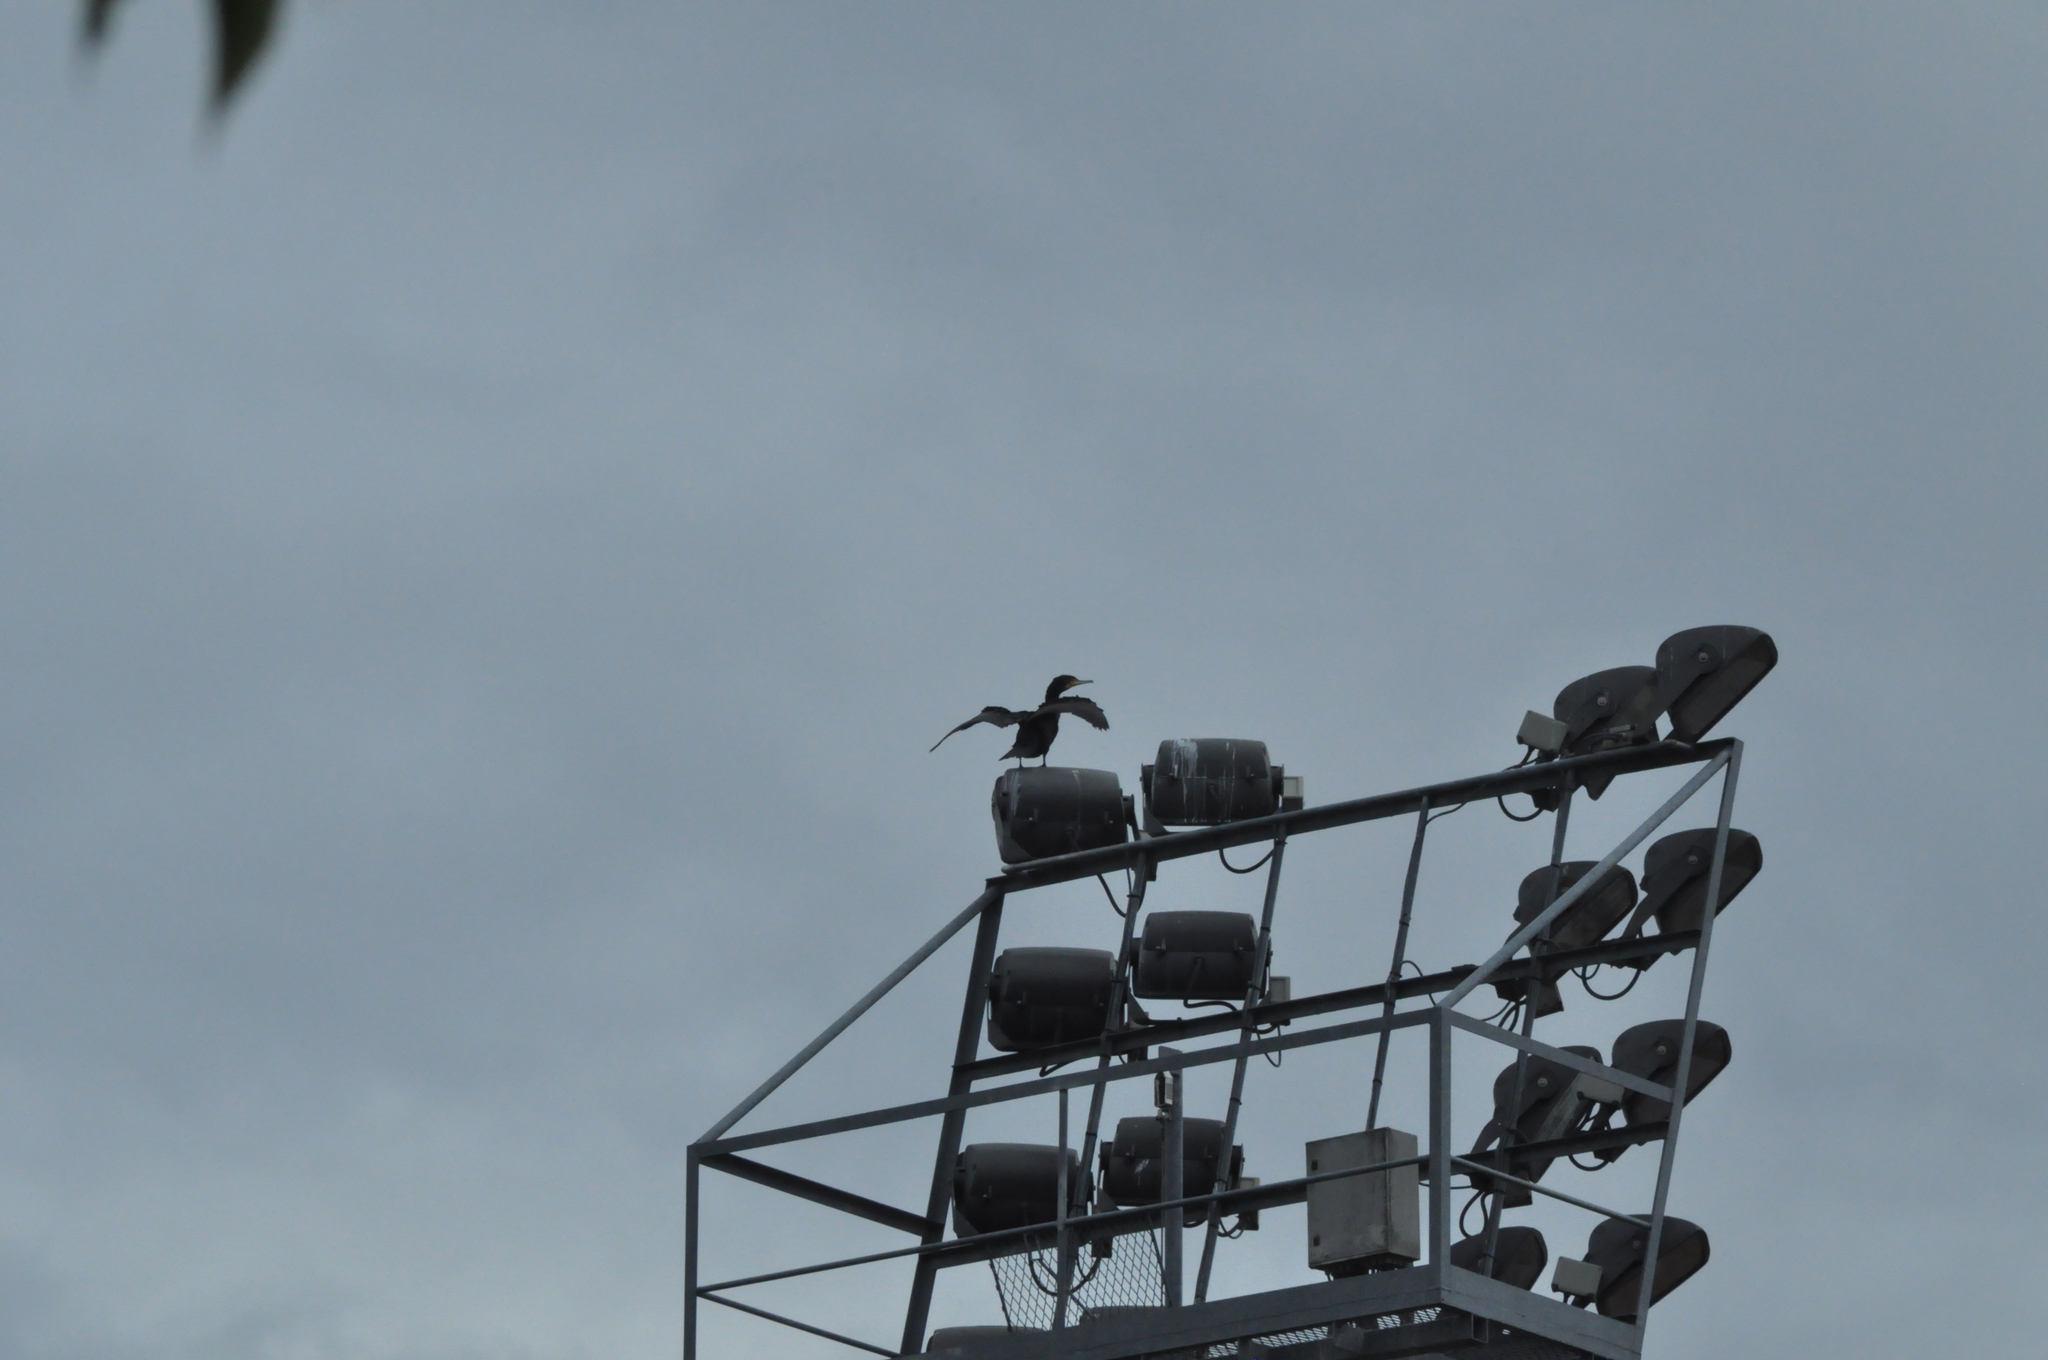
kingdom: Animalia
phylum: Chordata
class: Aves
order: Suliformes
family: Phalacrocoracidae
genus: Phalacrocorax
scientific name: Phalacrocorax carbo
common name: Great cormorant
